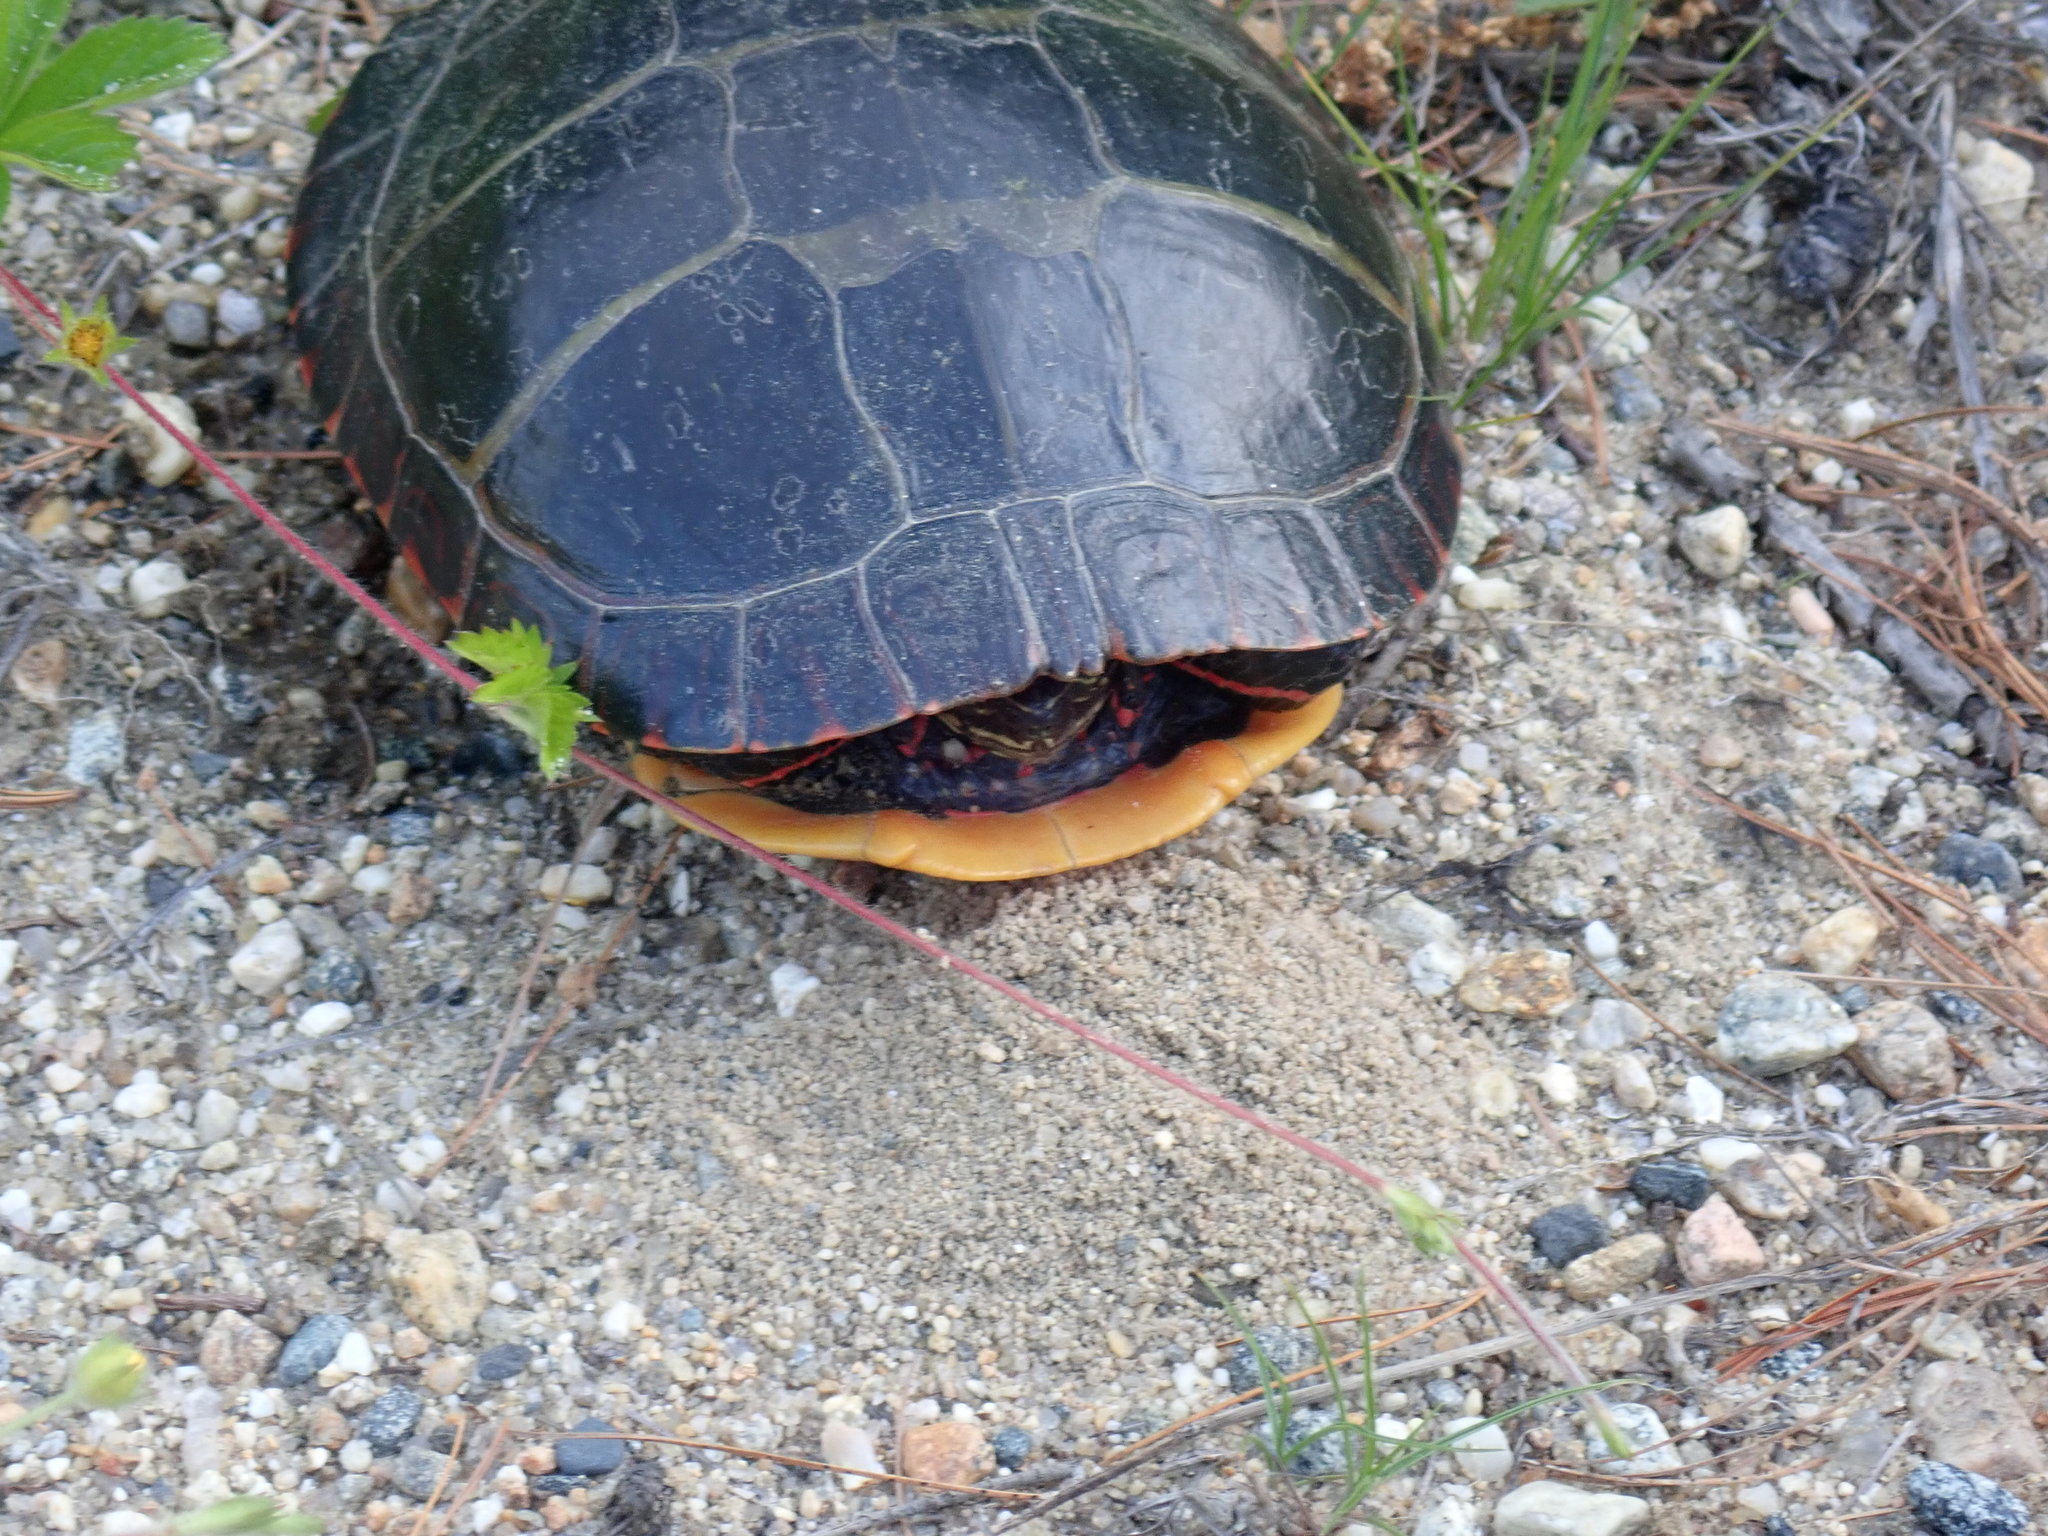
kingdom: Animalia
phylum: Chordata
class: Testudines
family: Emydidae
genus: Chrysemys
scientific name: Chrysemys picta
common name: Painted turtle
